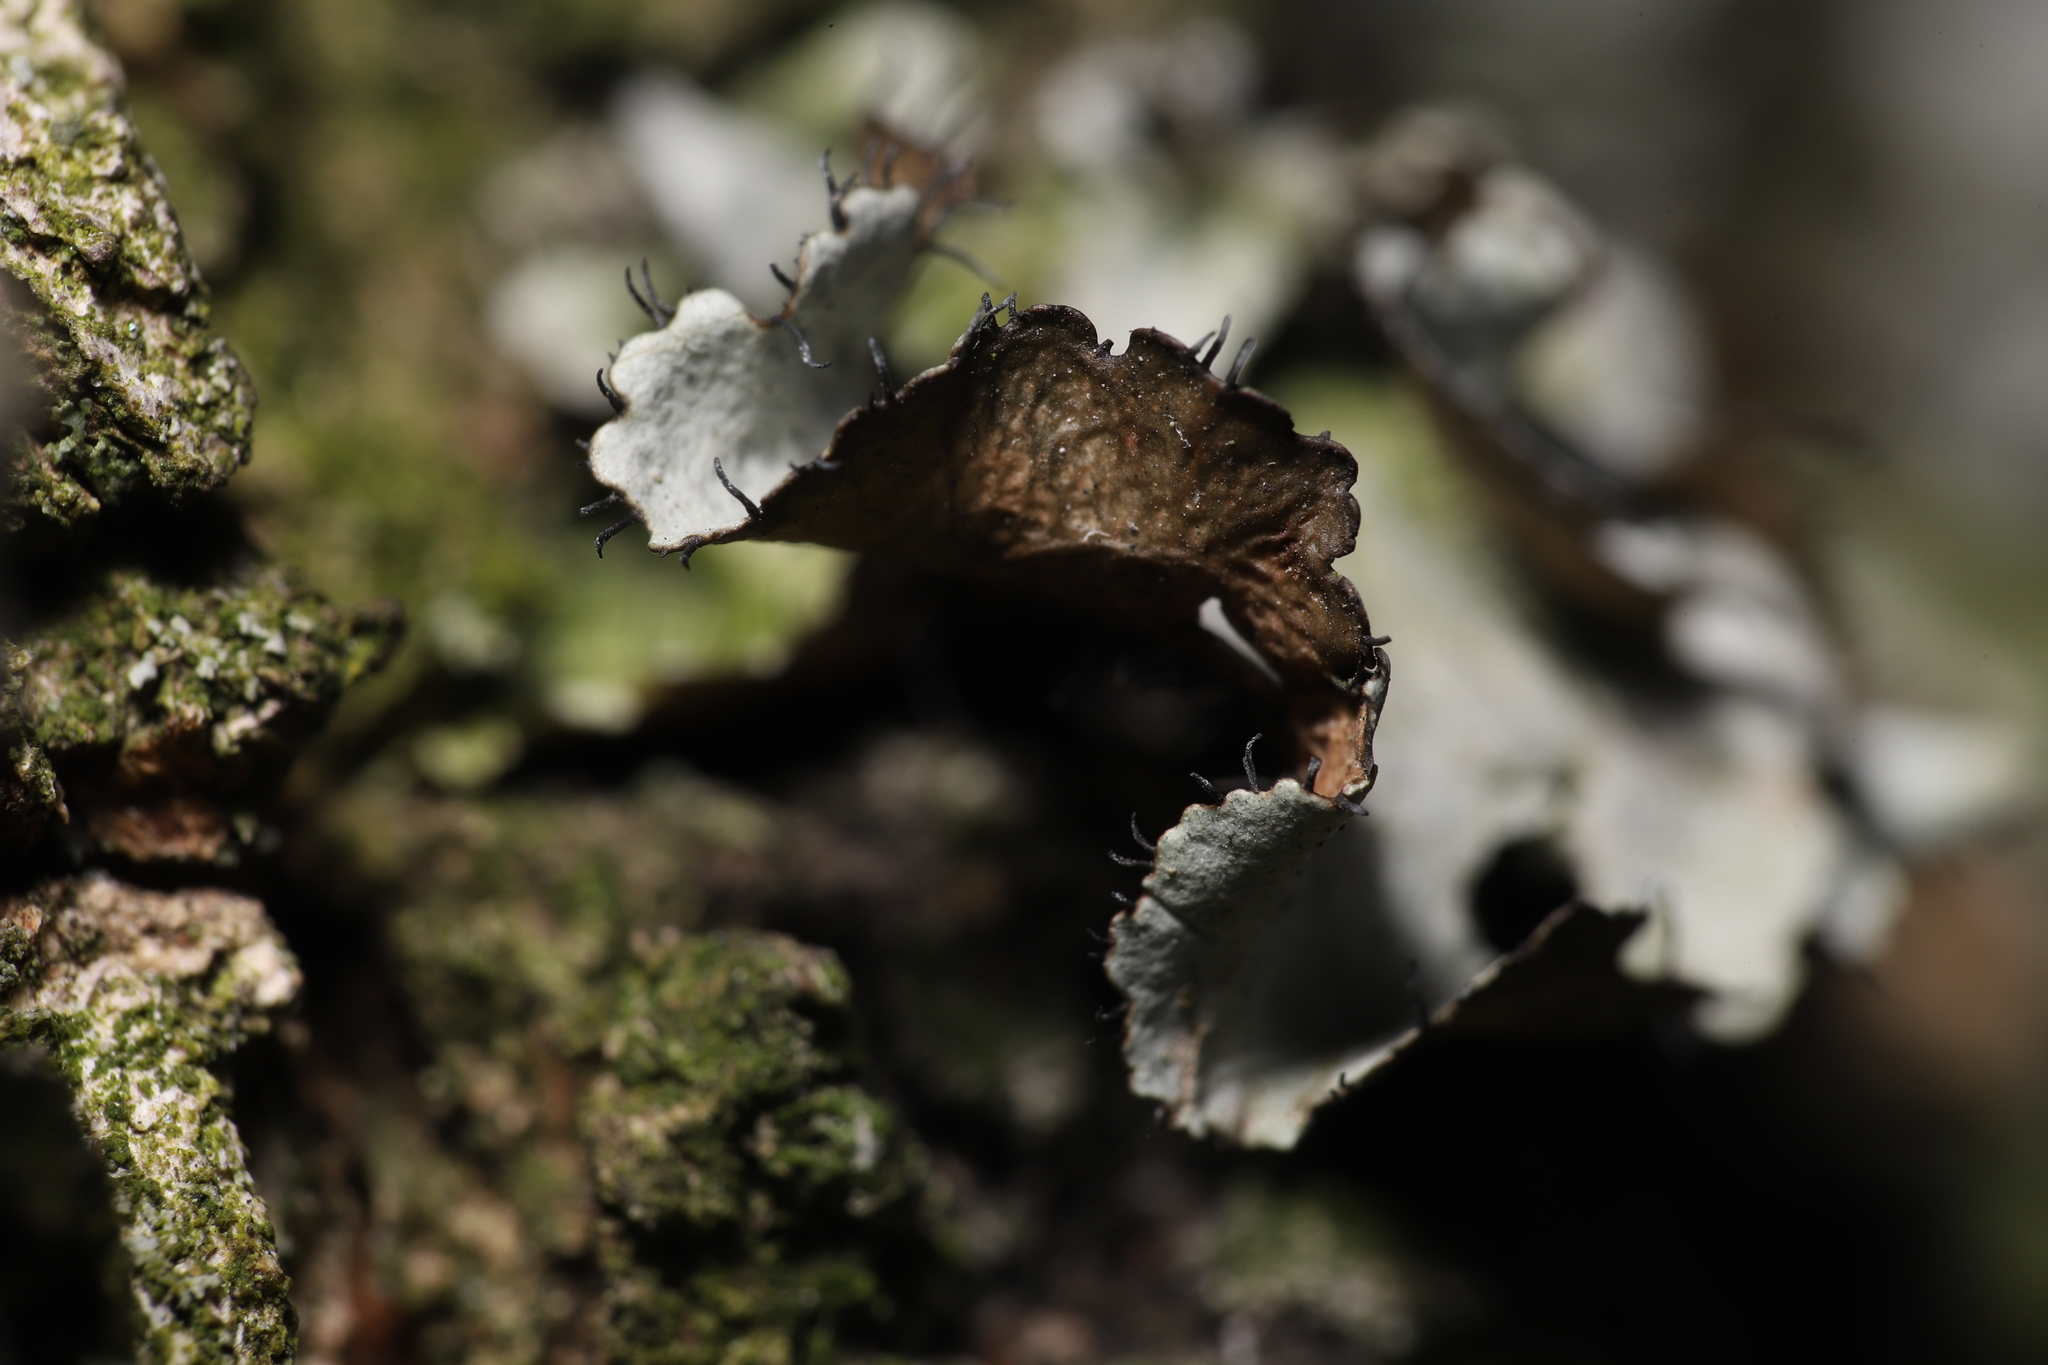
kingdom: Fungi
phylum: Ascomycota
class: Lecanoromycetes
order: Lecanorales
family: Parmeliaceae
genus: Parmotrema
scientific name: Parmotrema hypotropum
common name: Powdered ruffle lichen
